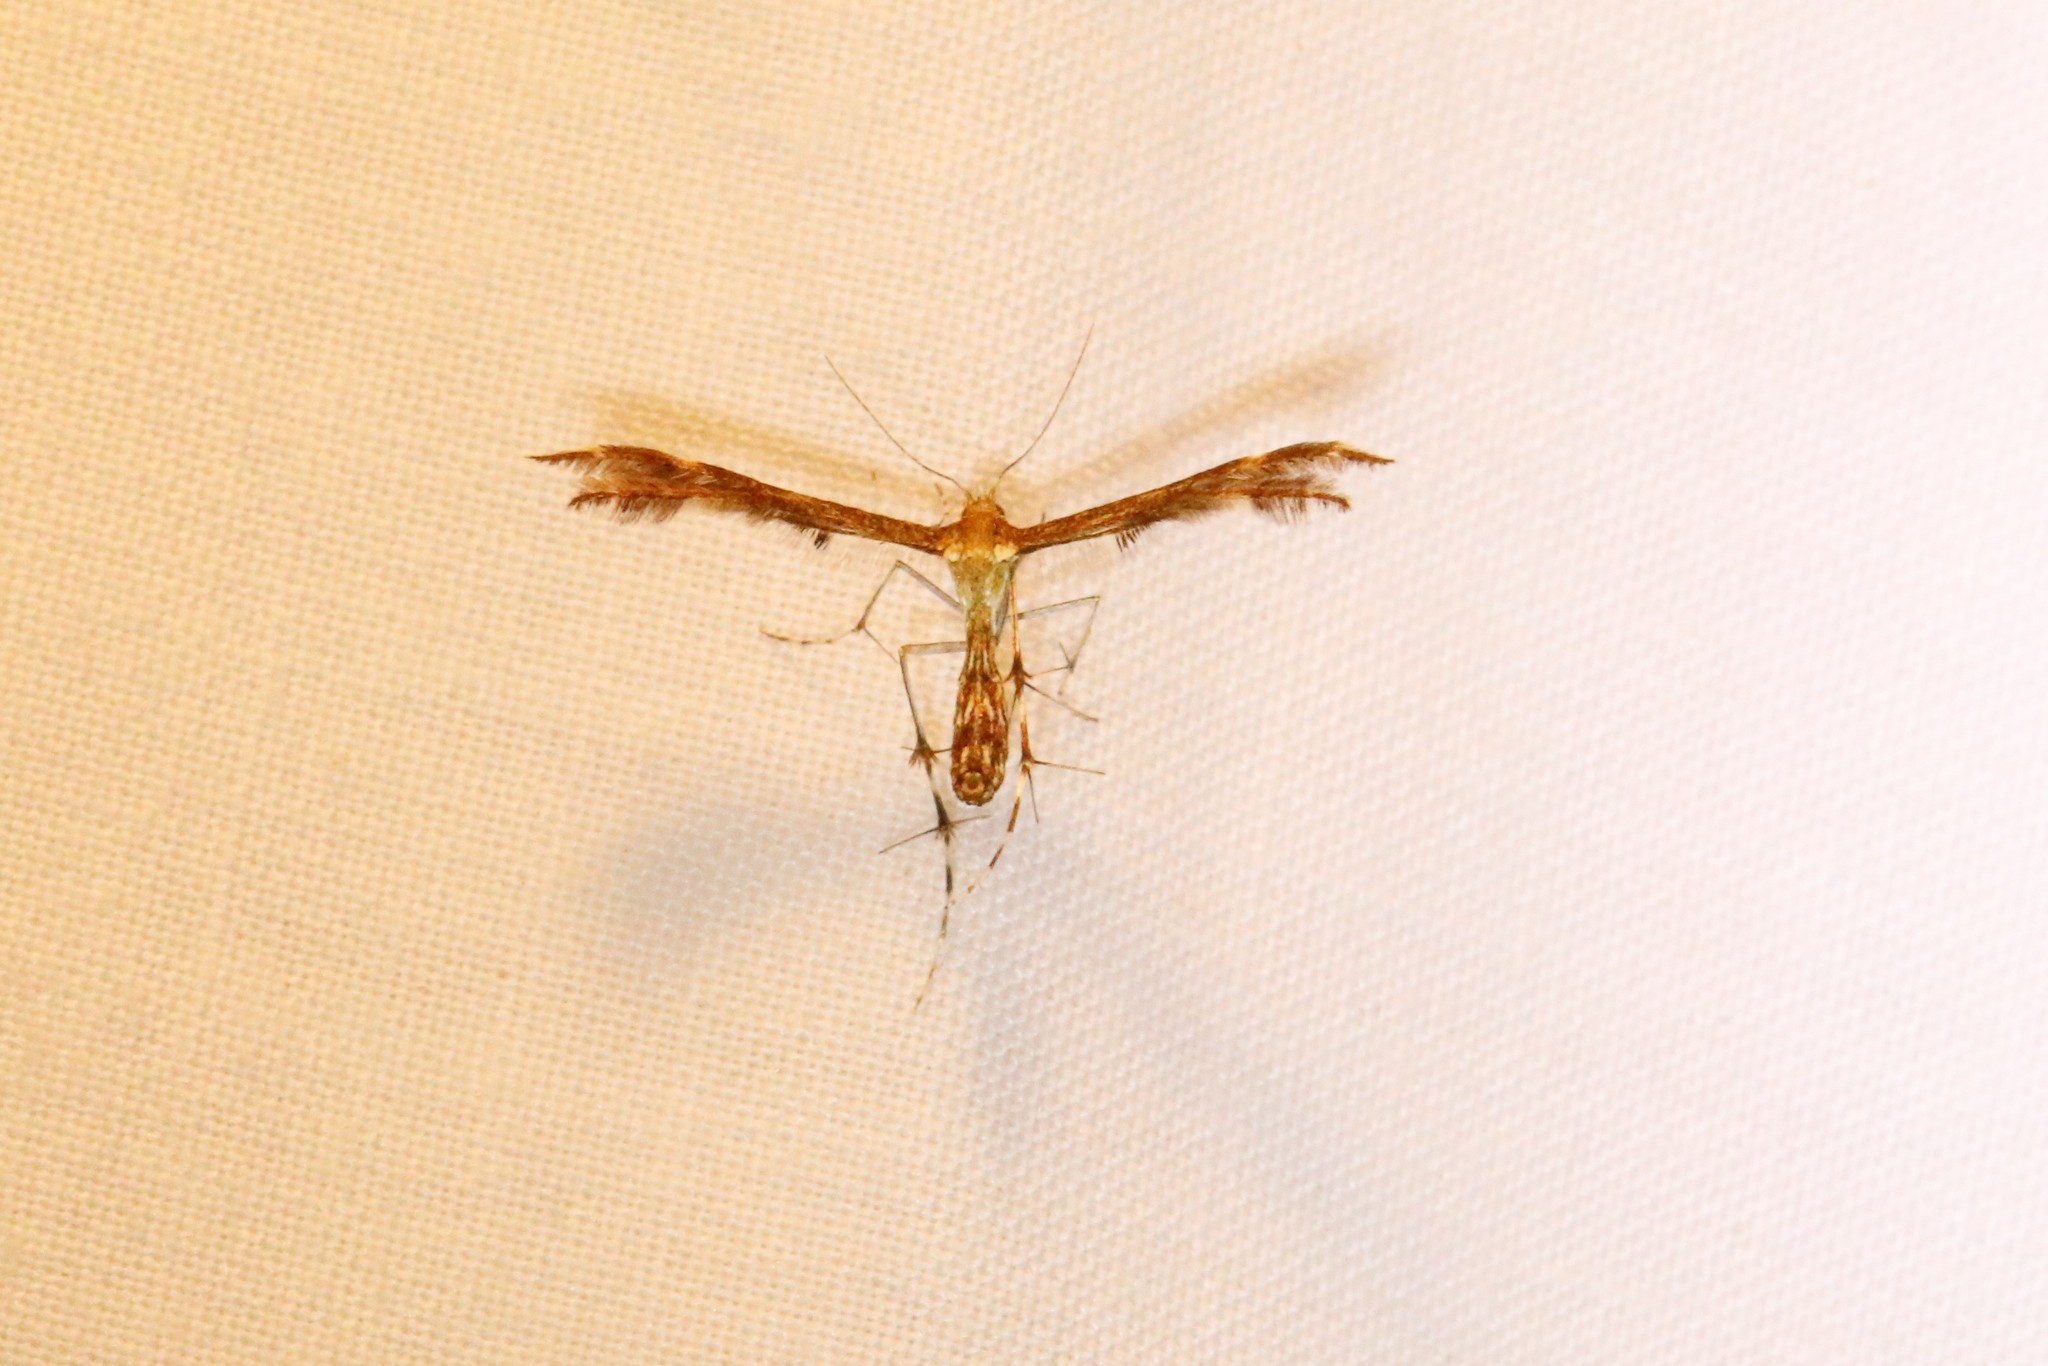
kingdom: Animalia
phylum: Arthropoda
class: Insecta
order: Lepidoptera
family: Pterophoridae
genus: Dejongia
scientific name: Dejongia lobidactylus
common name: Lobed plume moth
